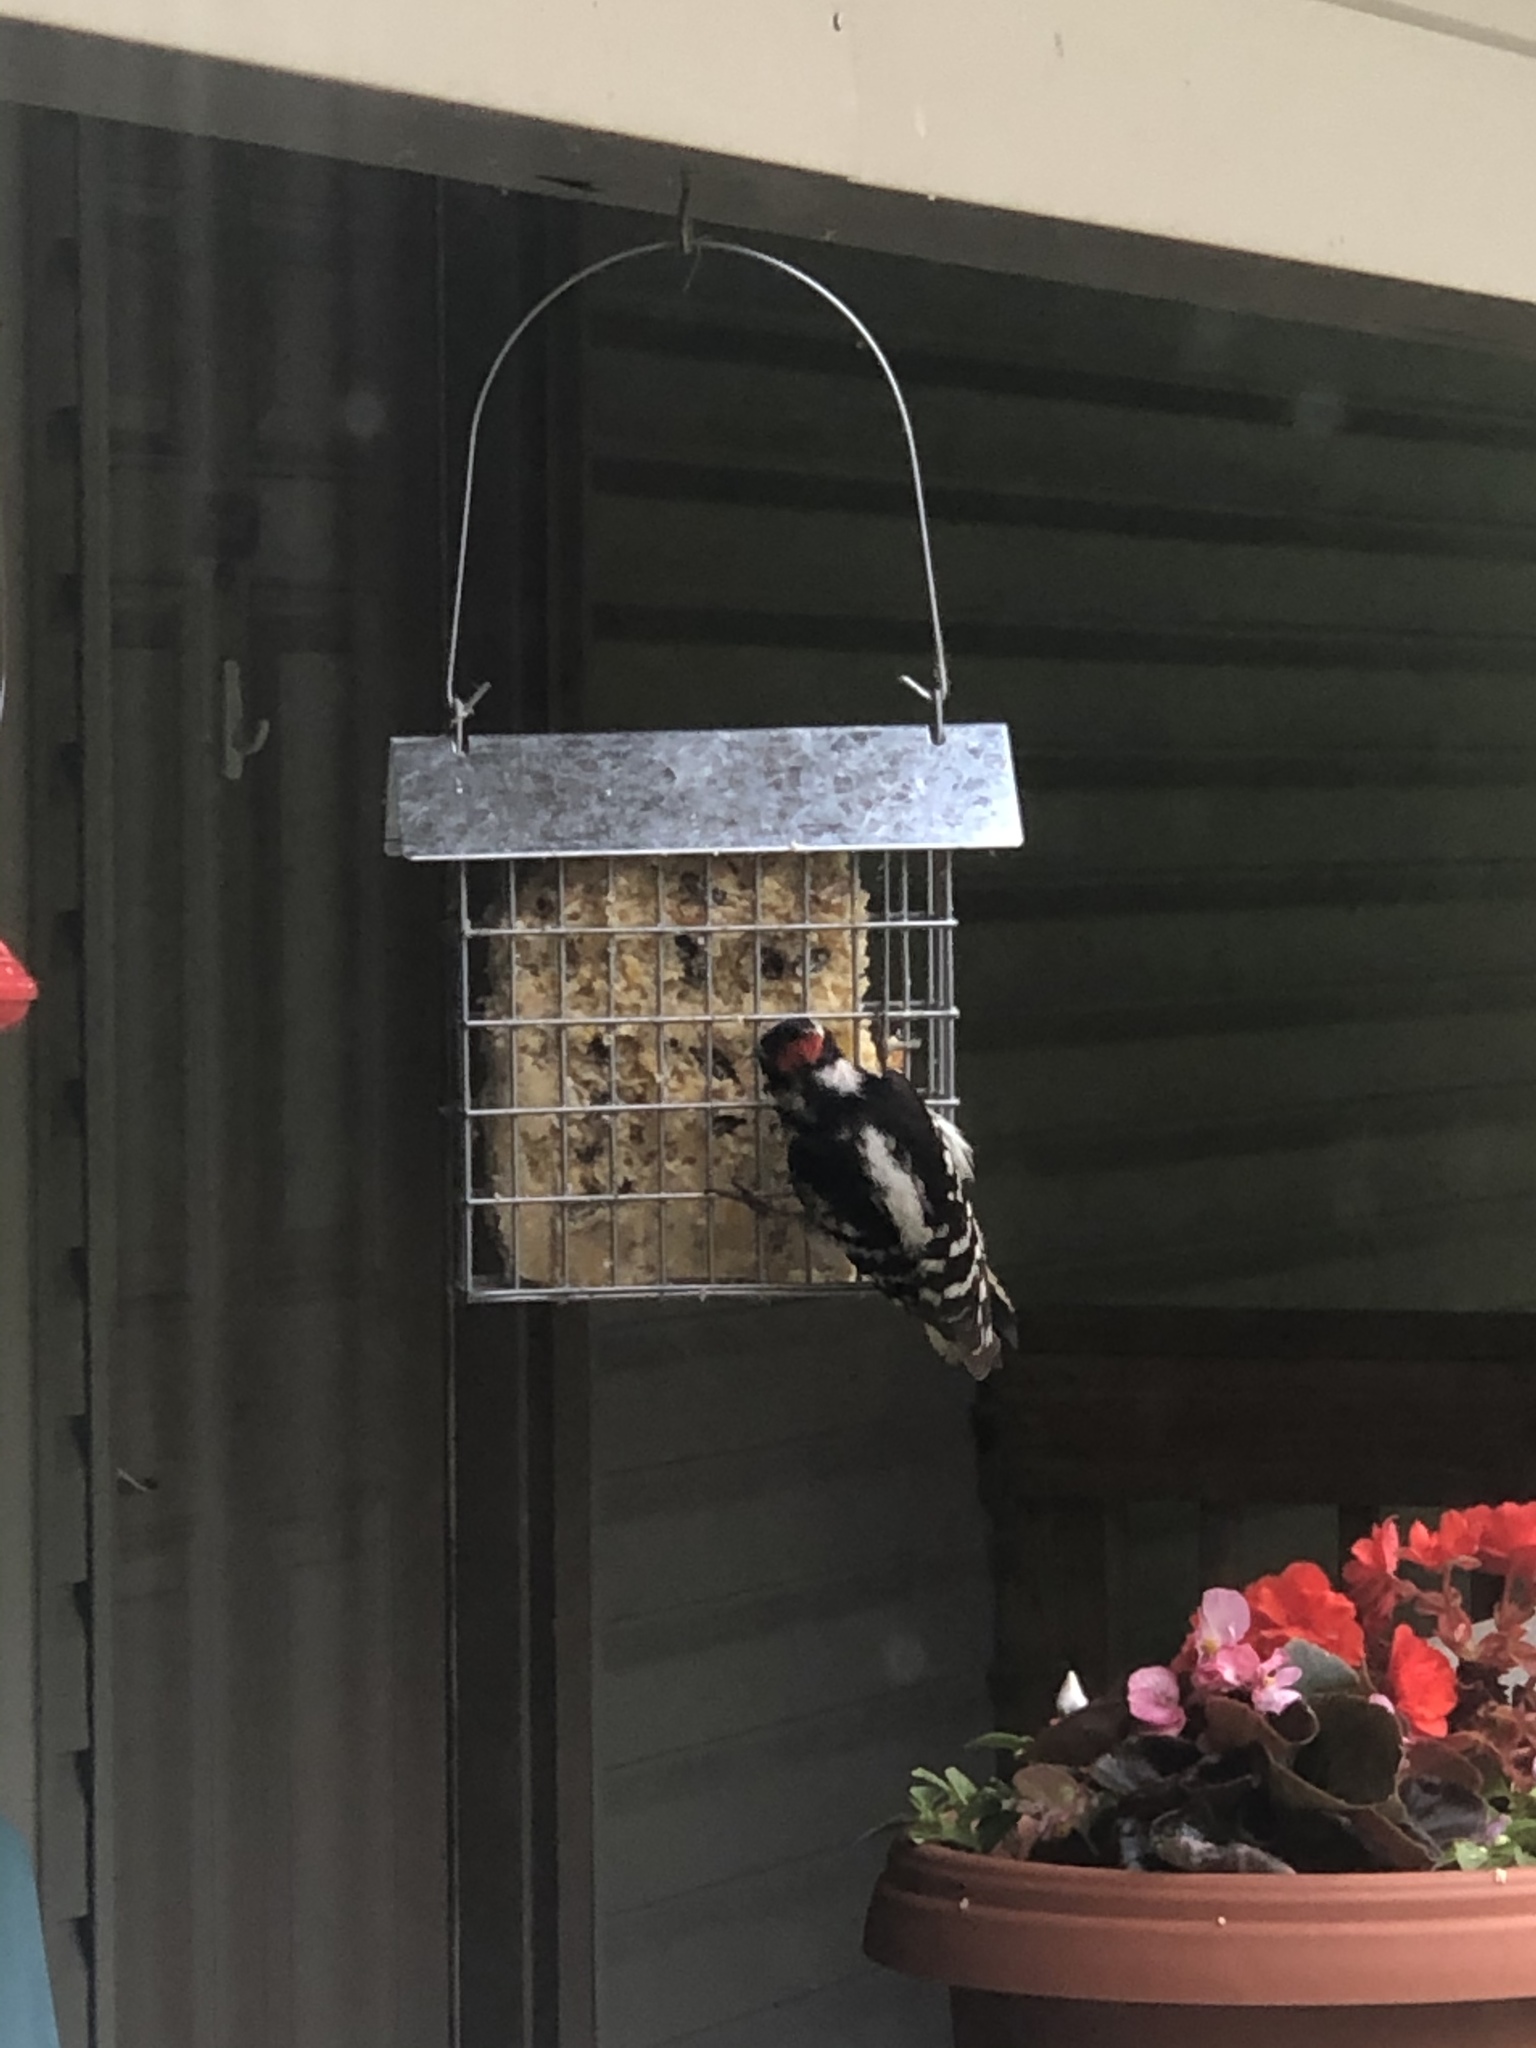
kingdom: Animalia
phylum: Chordata
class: Aves
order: Piciformes
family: Picidae
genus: Leuconotopicus
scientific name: Leuconotopicus villosus
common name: Hairy woodpecker
